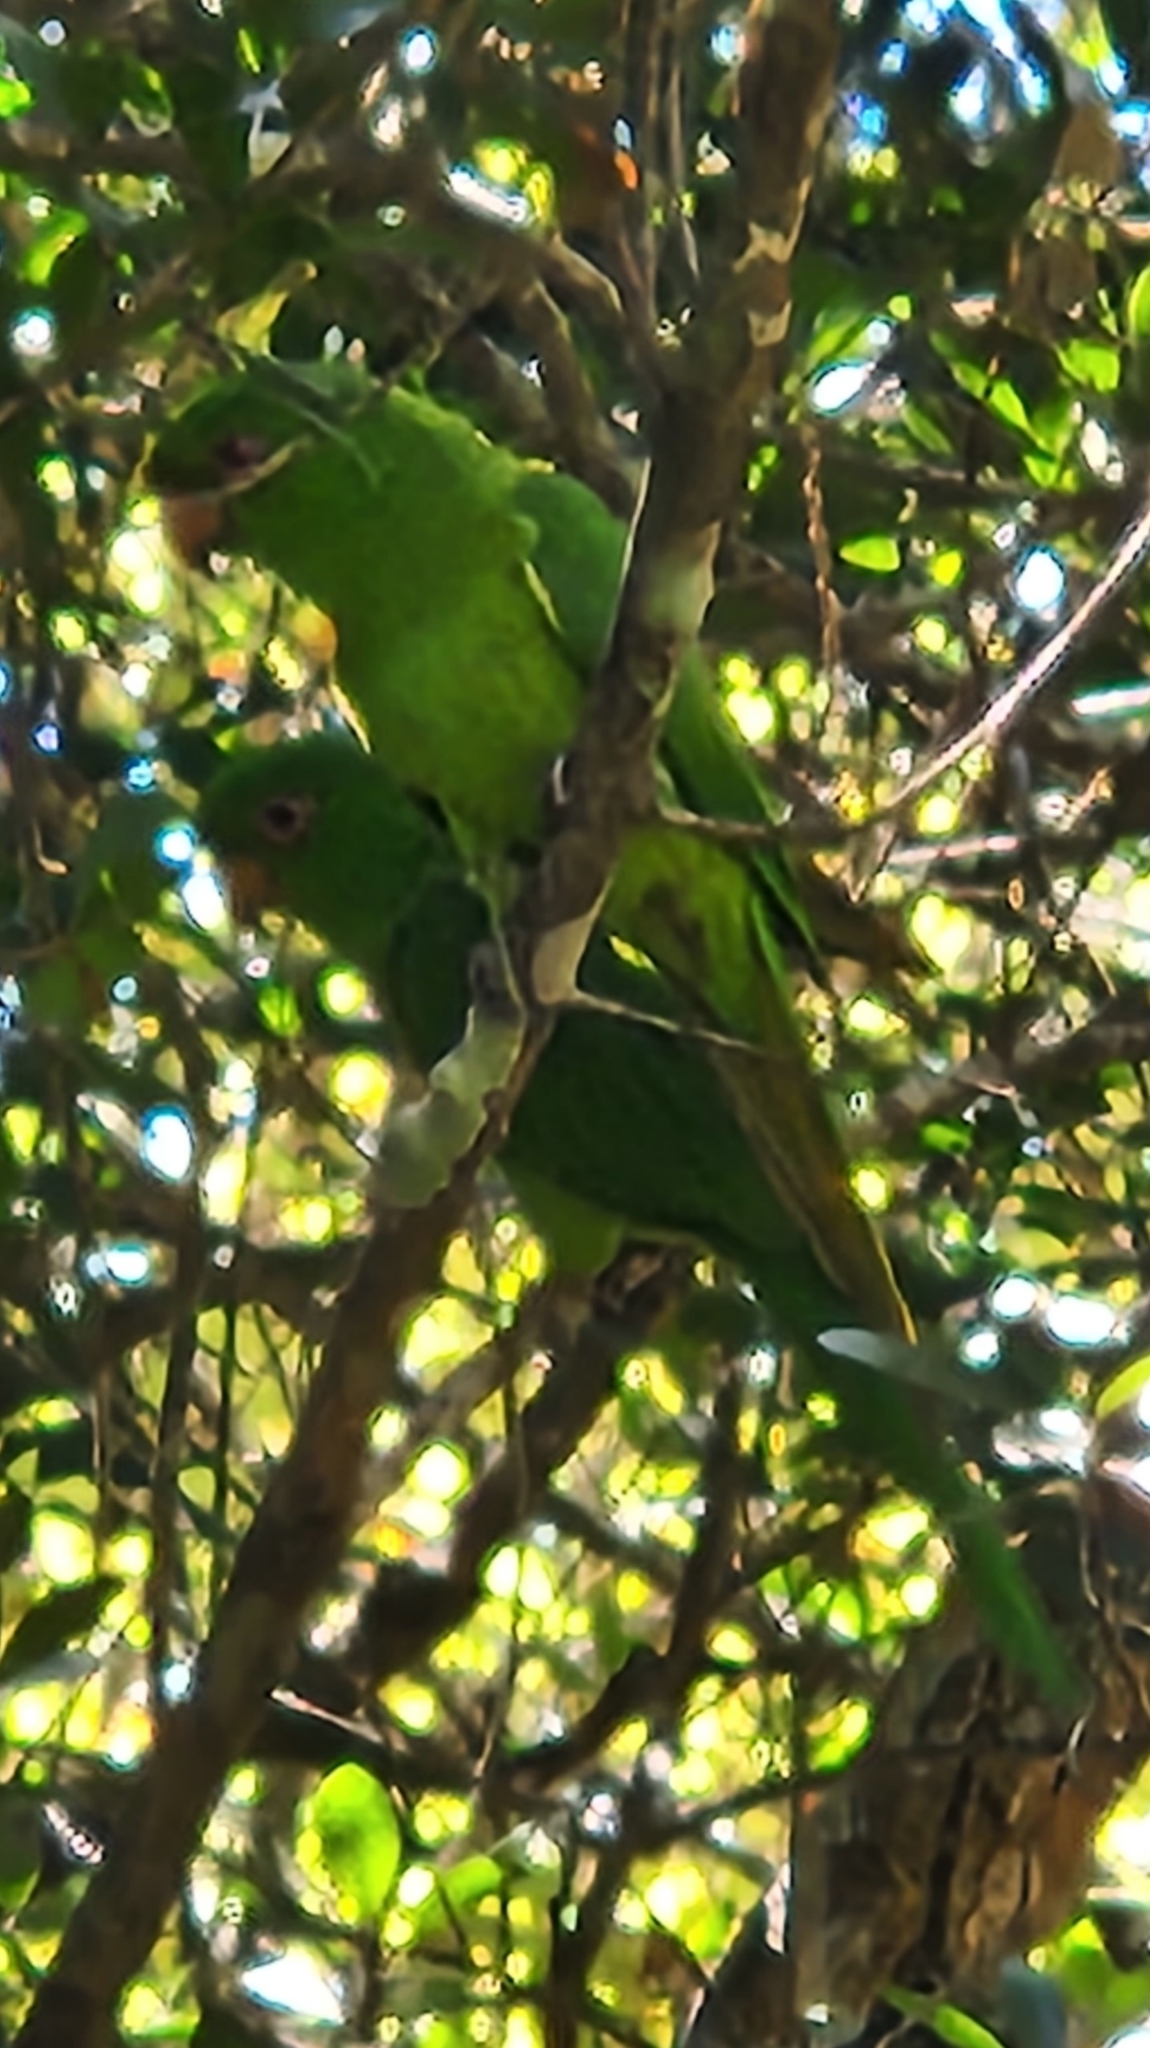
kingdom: Animalia
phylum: Chordata
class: Aves
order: Psittaciformes
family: Psittacidae
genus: Aratinga
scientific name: Aratinga holochlora
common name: Green parakeet
